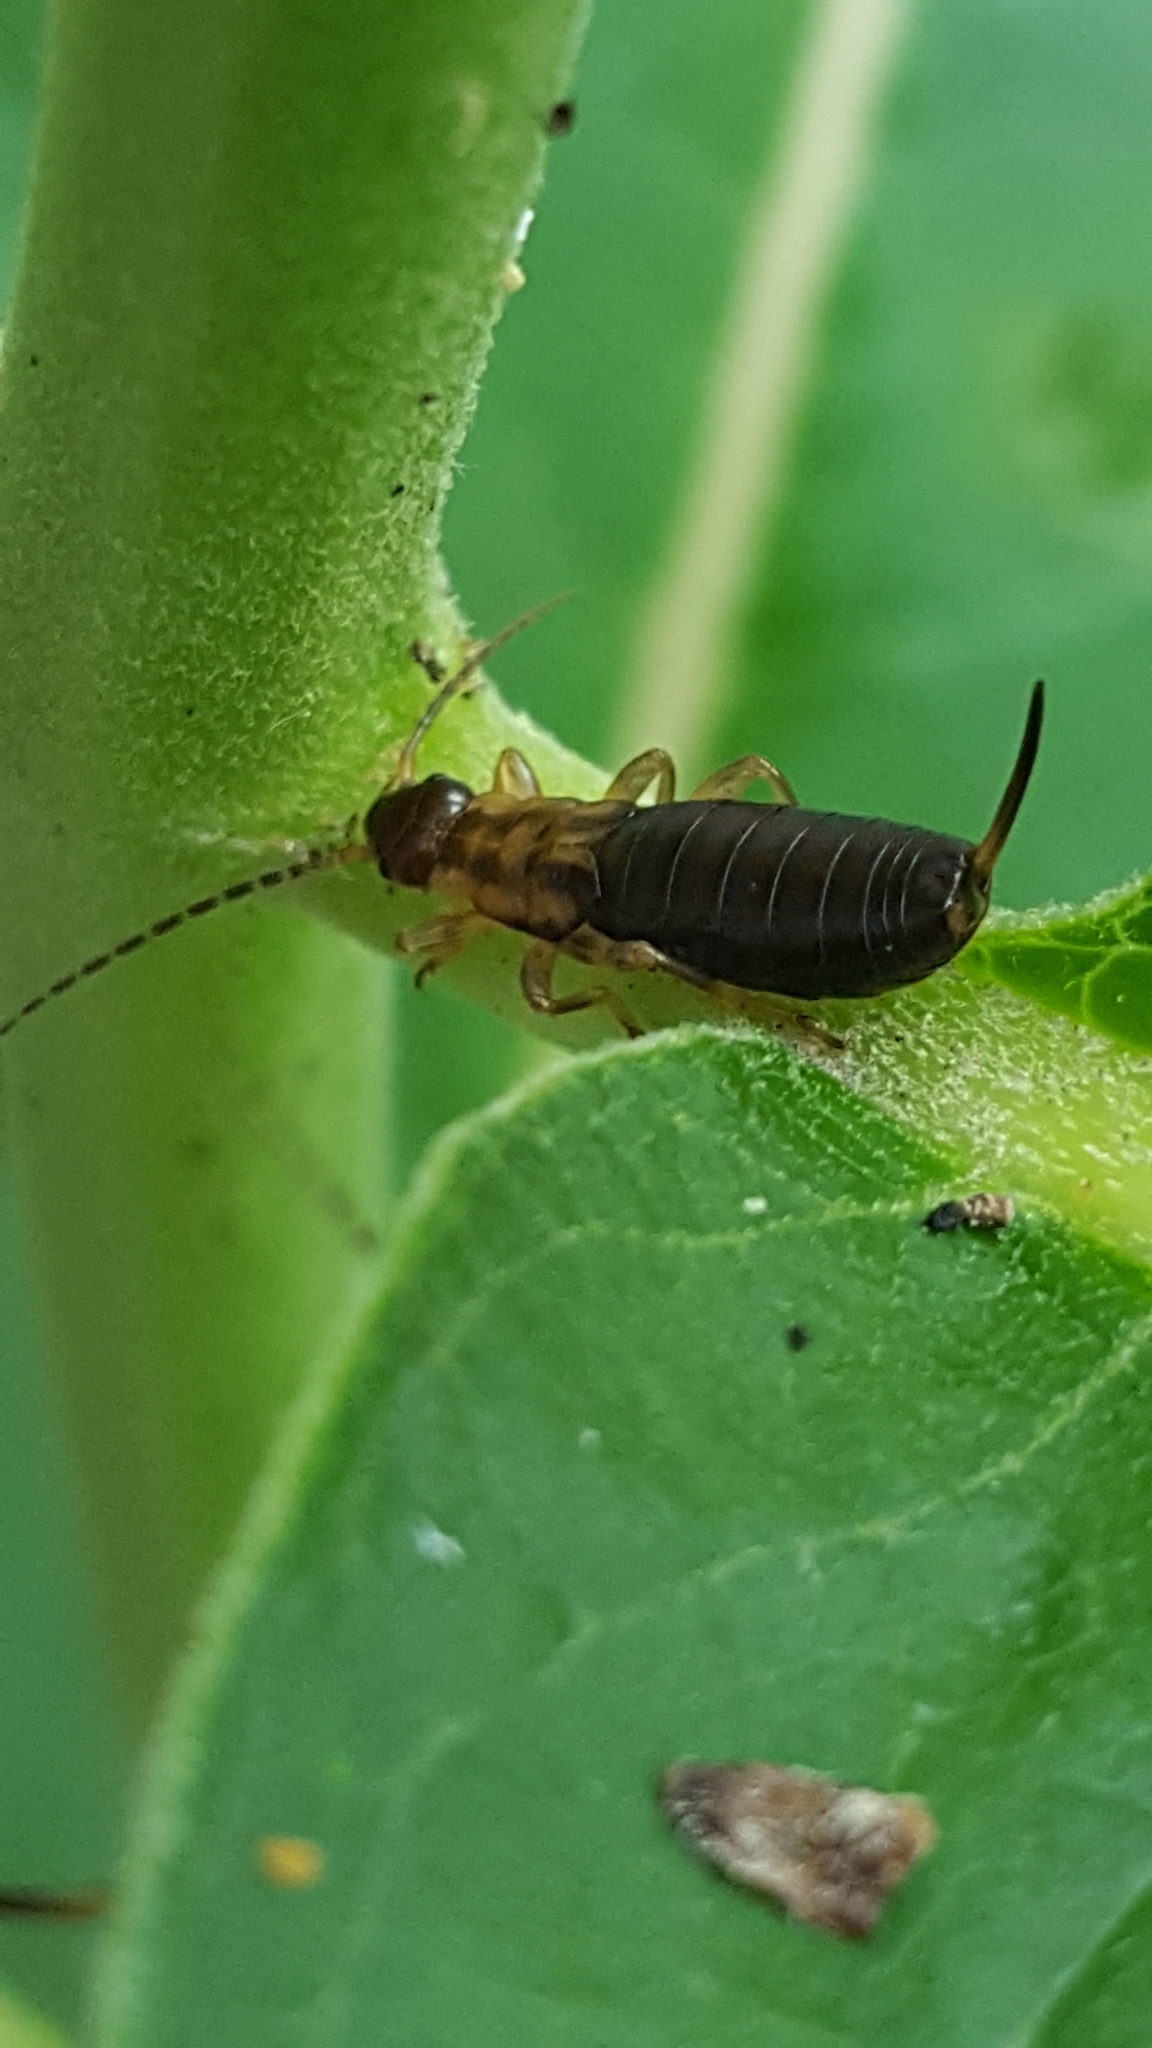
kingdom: Animalia
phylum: Arthropoda
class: Insecta
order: Dermaptera
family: Forficulidae
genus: Forficula
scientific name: Forficula
